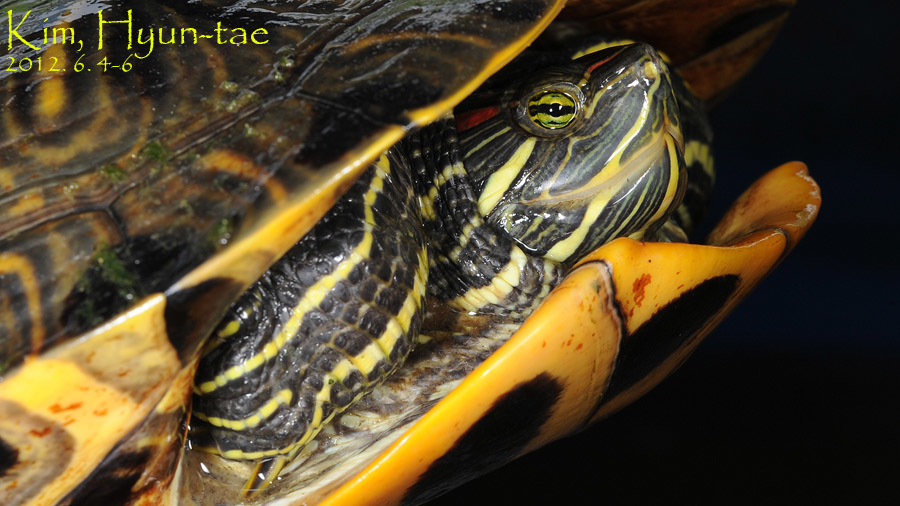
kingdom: Animalia
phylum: Chordata
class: Testudines
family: Emydidae
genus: Trachemys
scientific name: Trachemys scripta
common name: Slider
